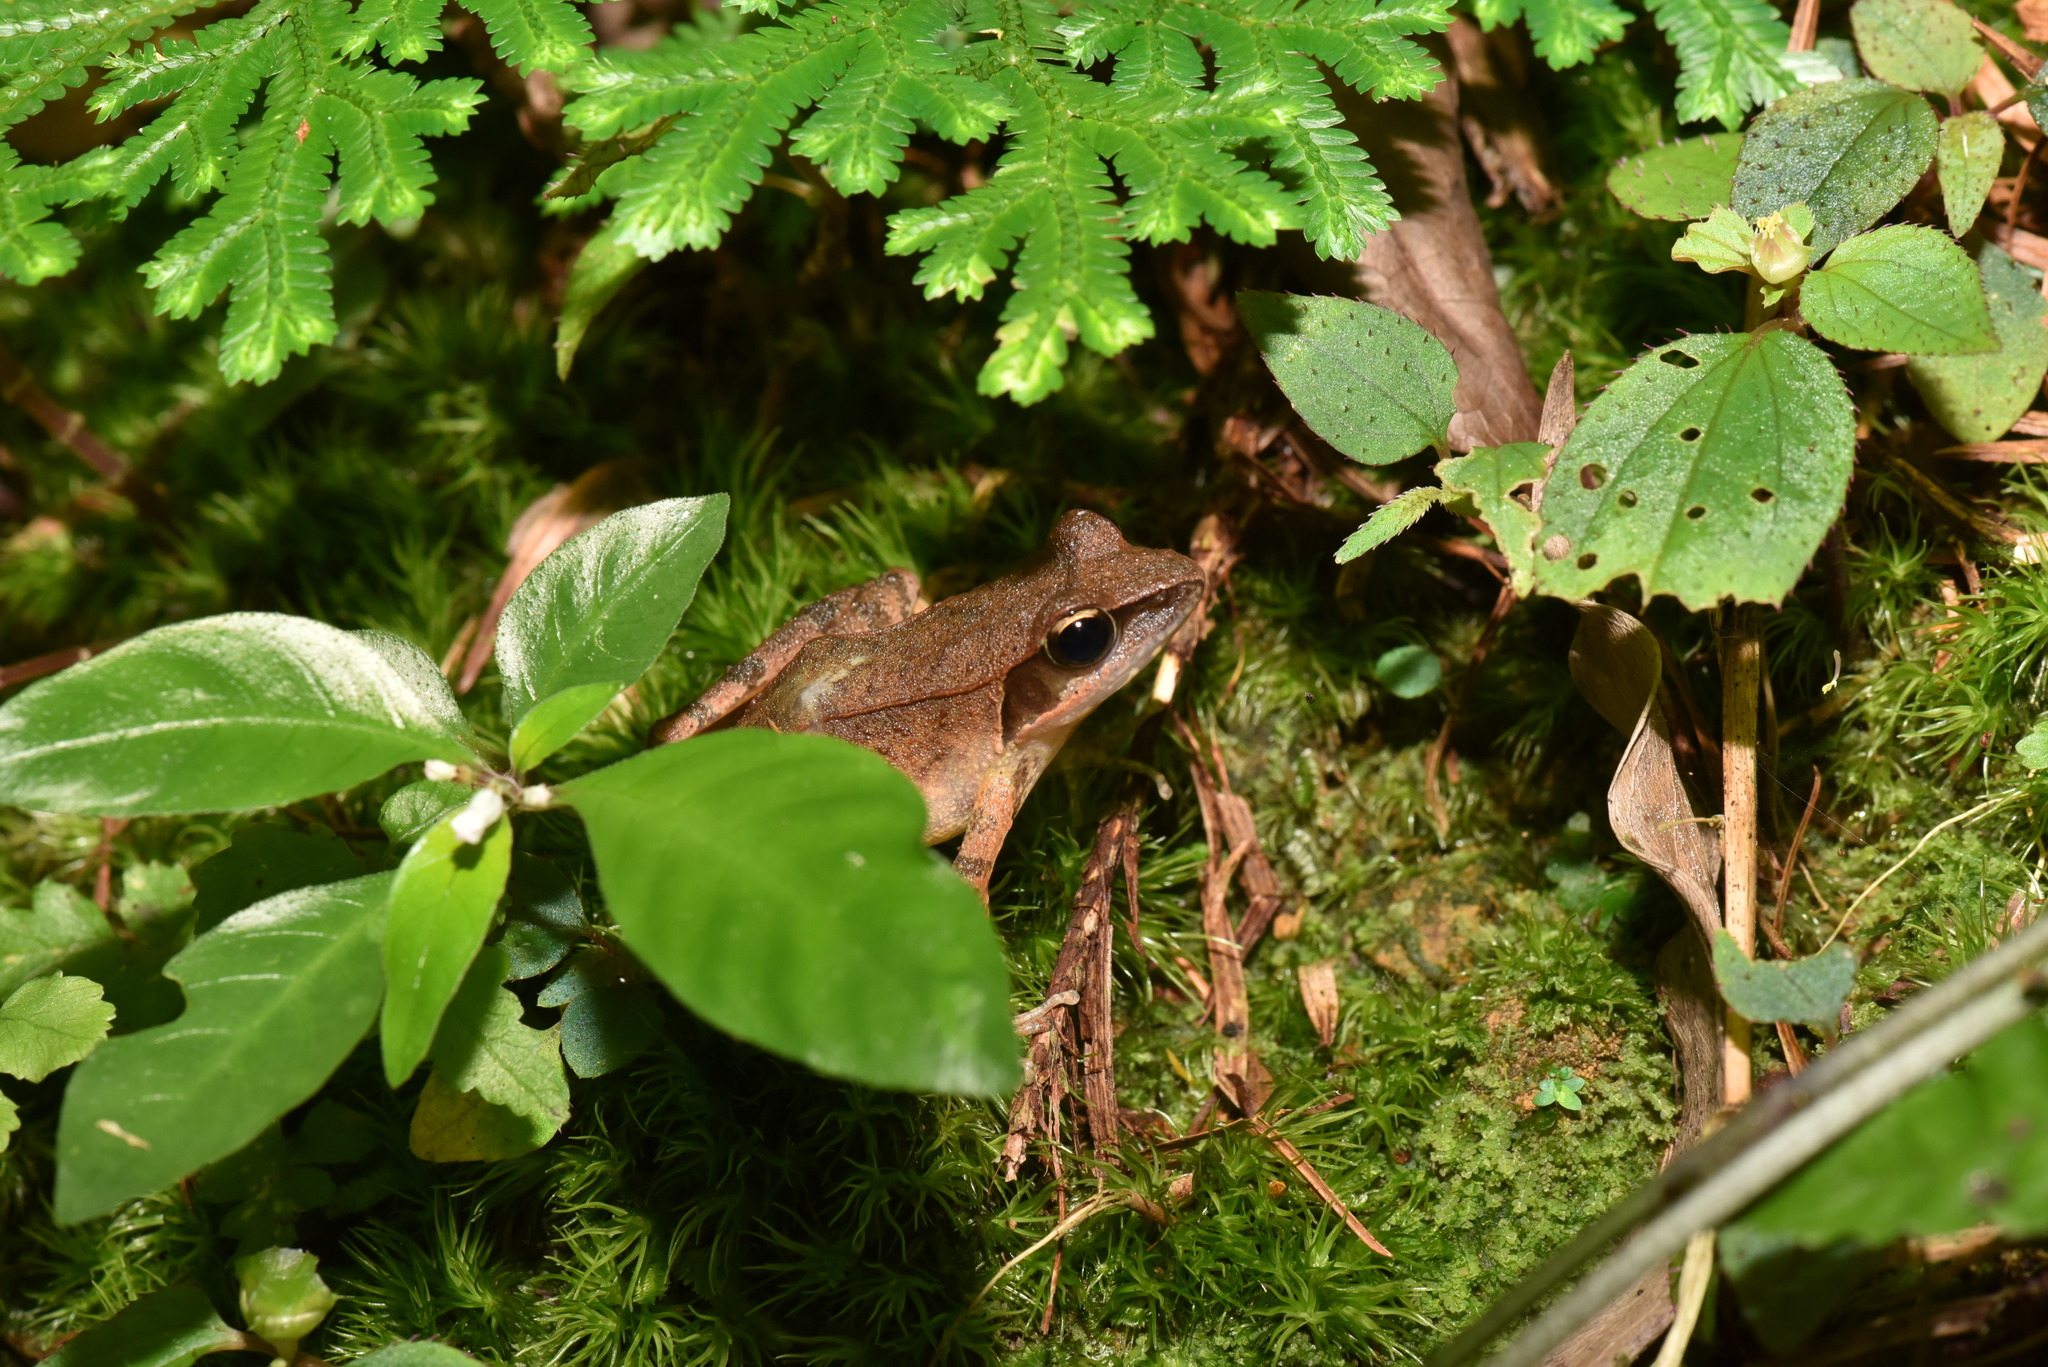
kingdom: Animalia
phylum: Chordata
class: Amphibia
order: Anura
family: Ranidae
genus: Rana
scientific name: Rana sauteri
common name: Kanshirei village frog
